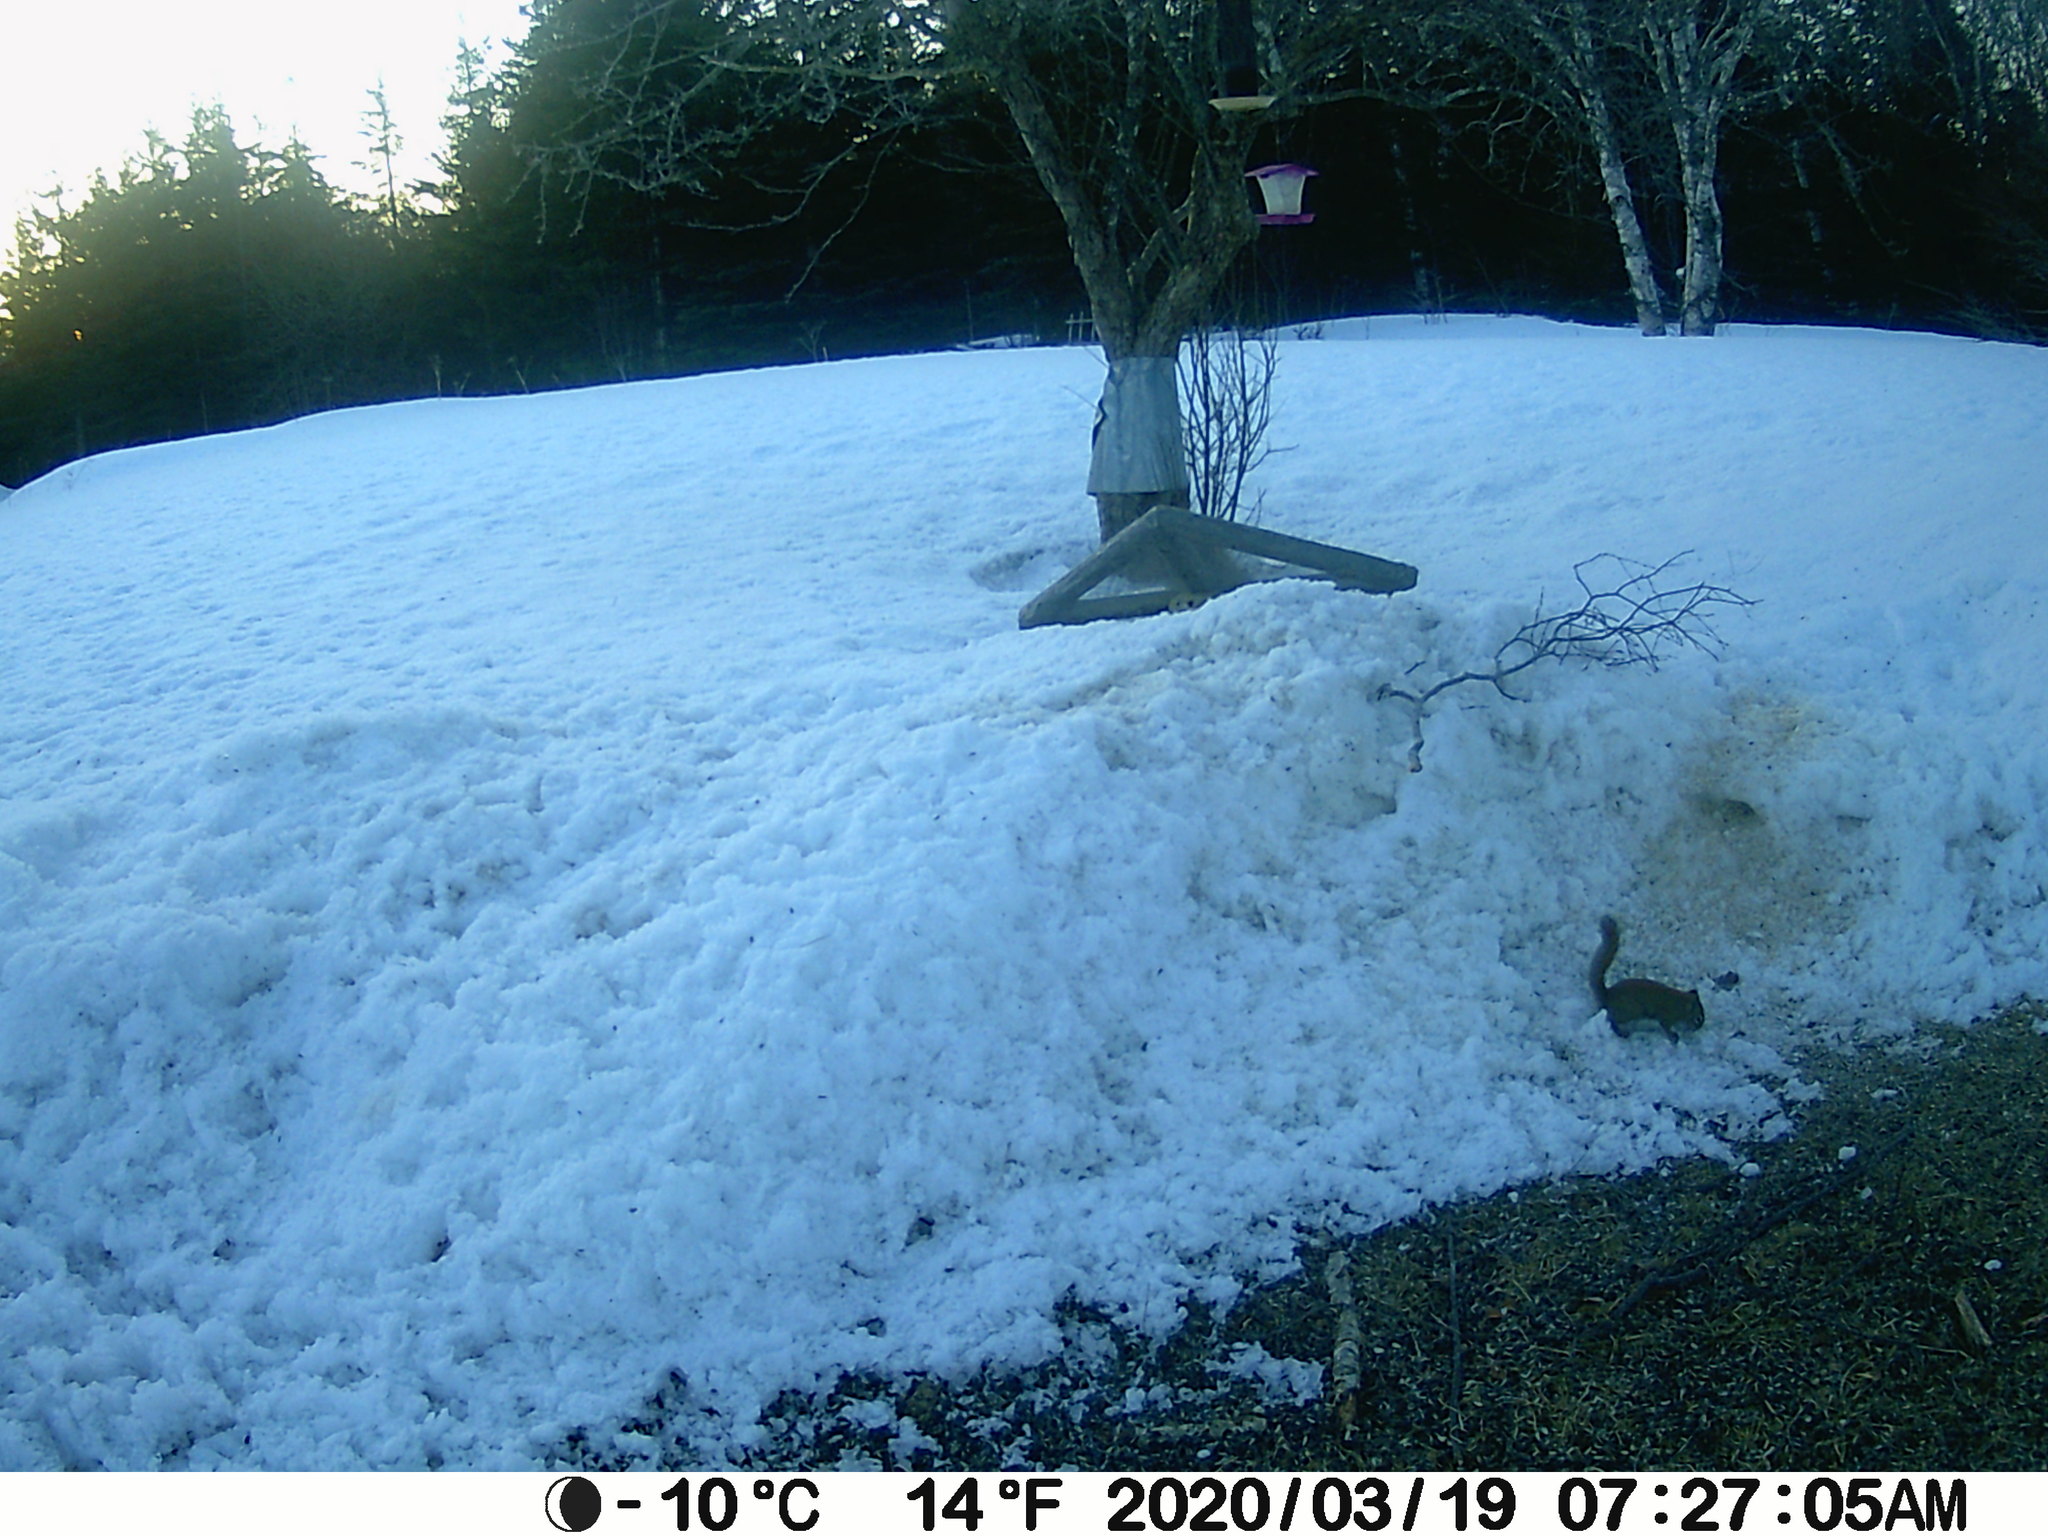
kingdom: Animalia
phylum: Chordata
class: Mammalia
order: Rodentia
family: Sciuridae
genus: Tamiasciurus
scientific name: Tamiasciurus hudsonicus
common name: Red squirrel
